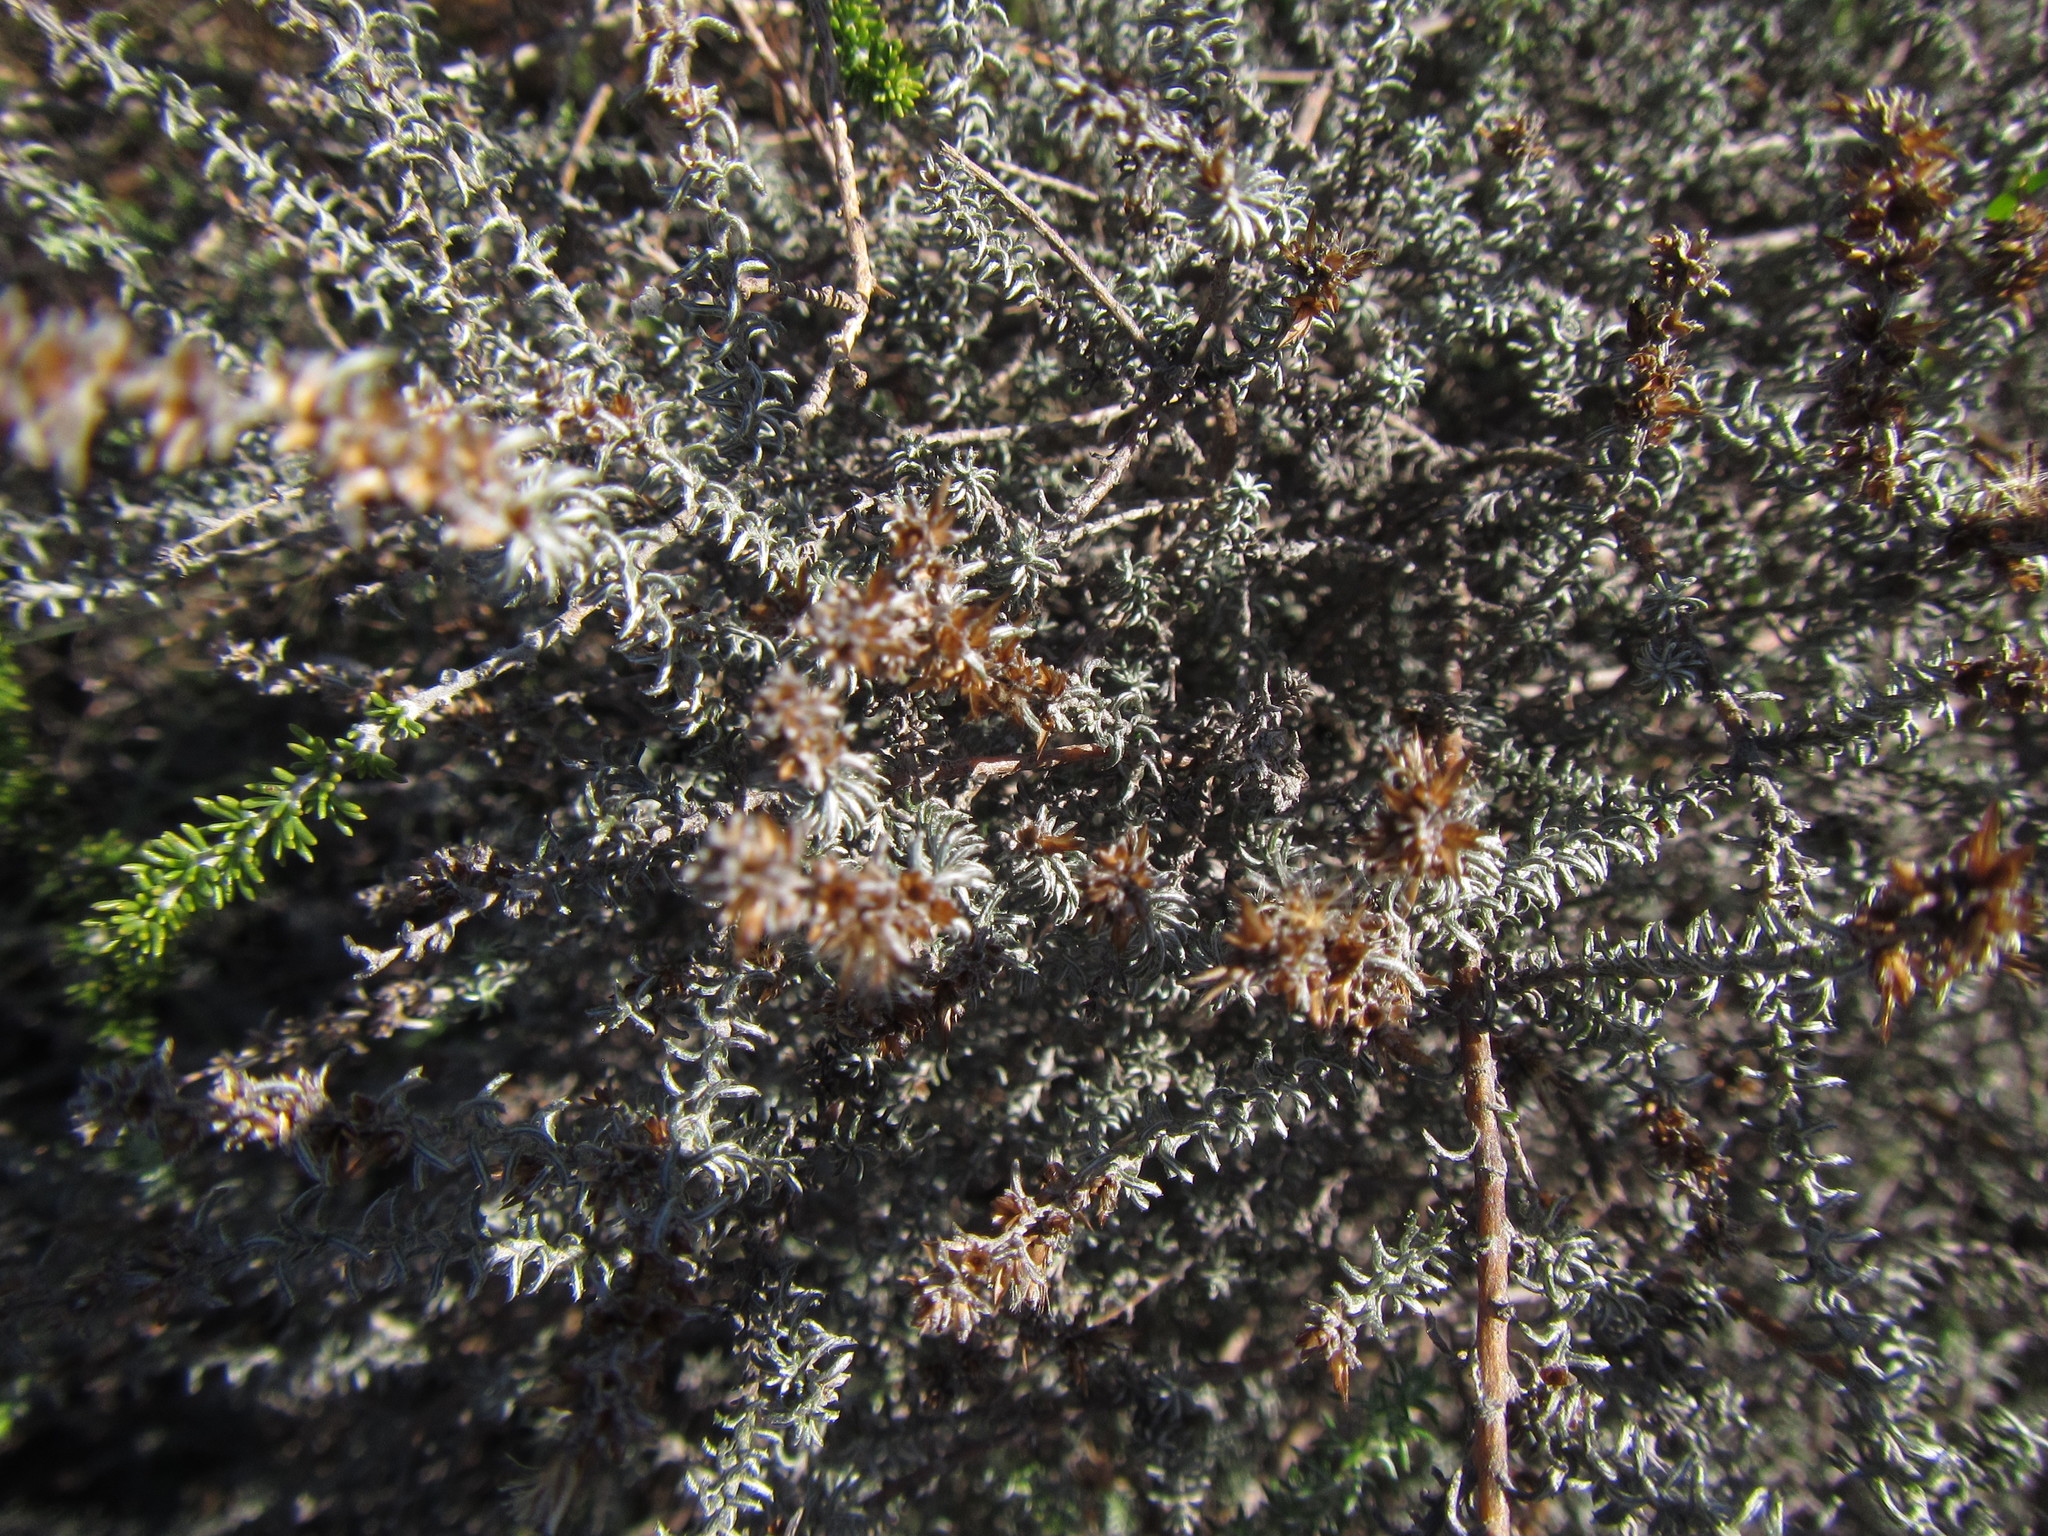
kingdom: Plantae
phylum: Tracheophyta
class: Magnoliopsida
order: Asterales
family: Asteraceae
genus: Myrovernix
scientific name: Myrovernix gnaphaloides
